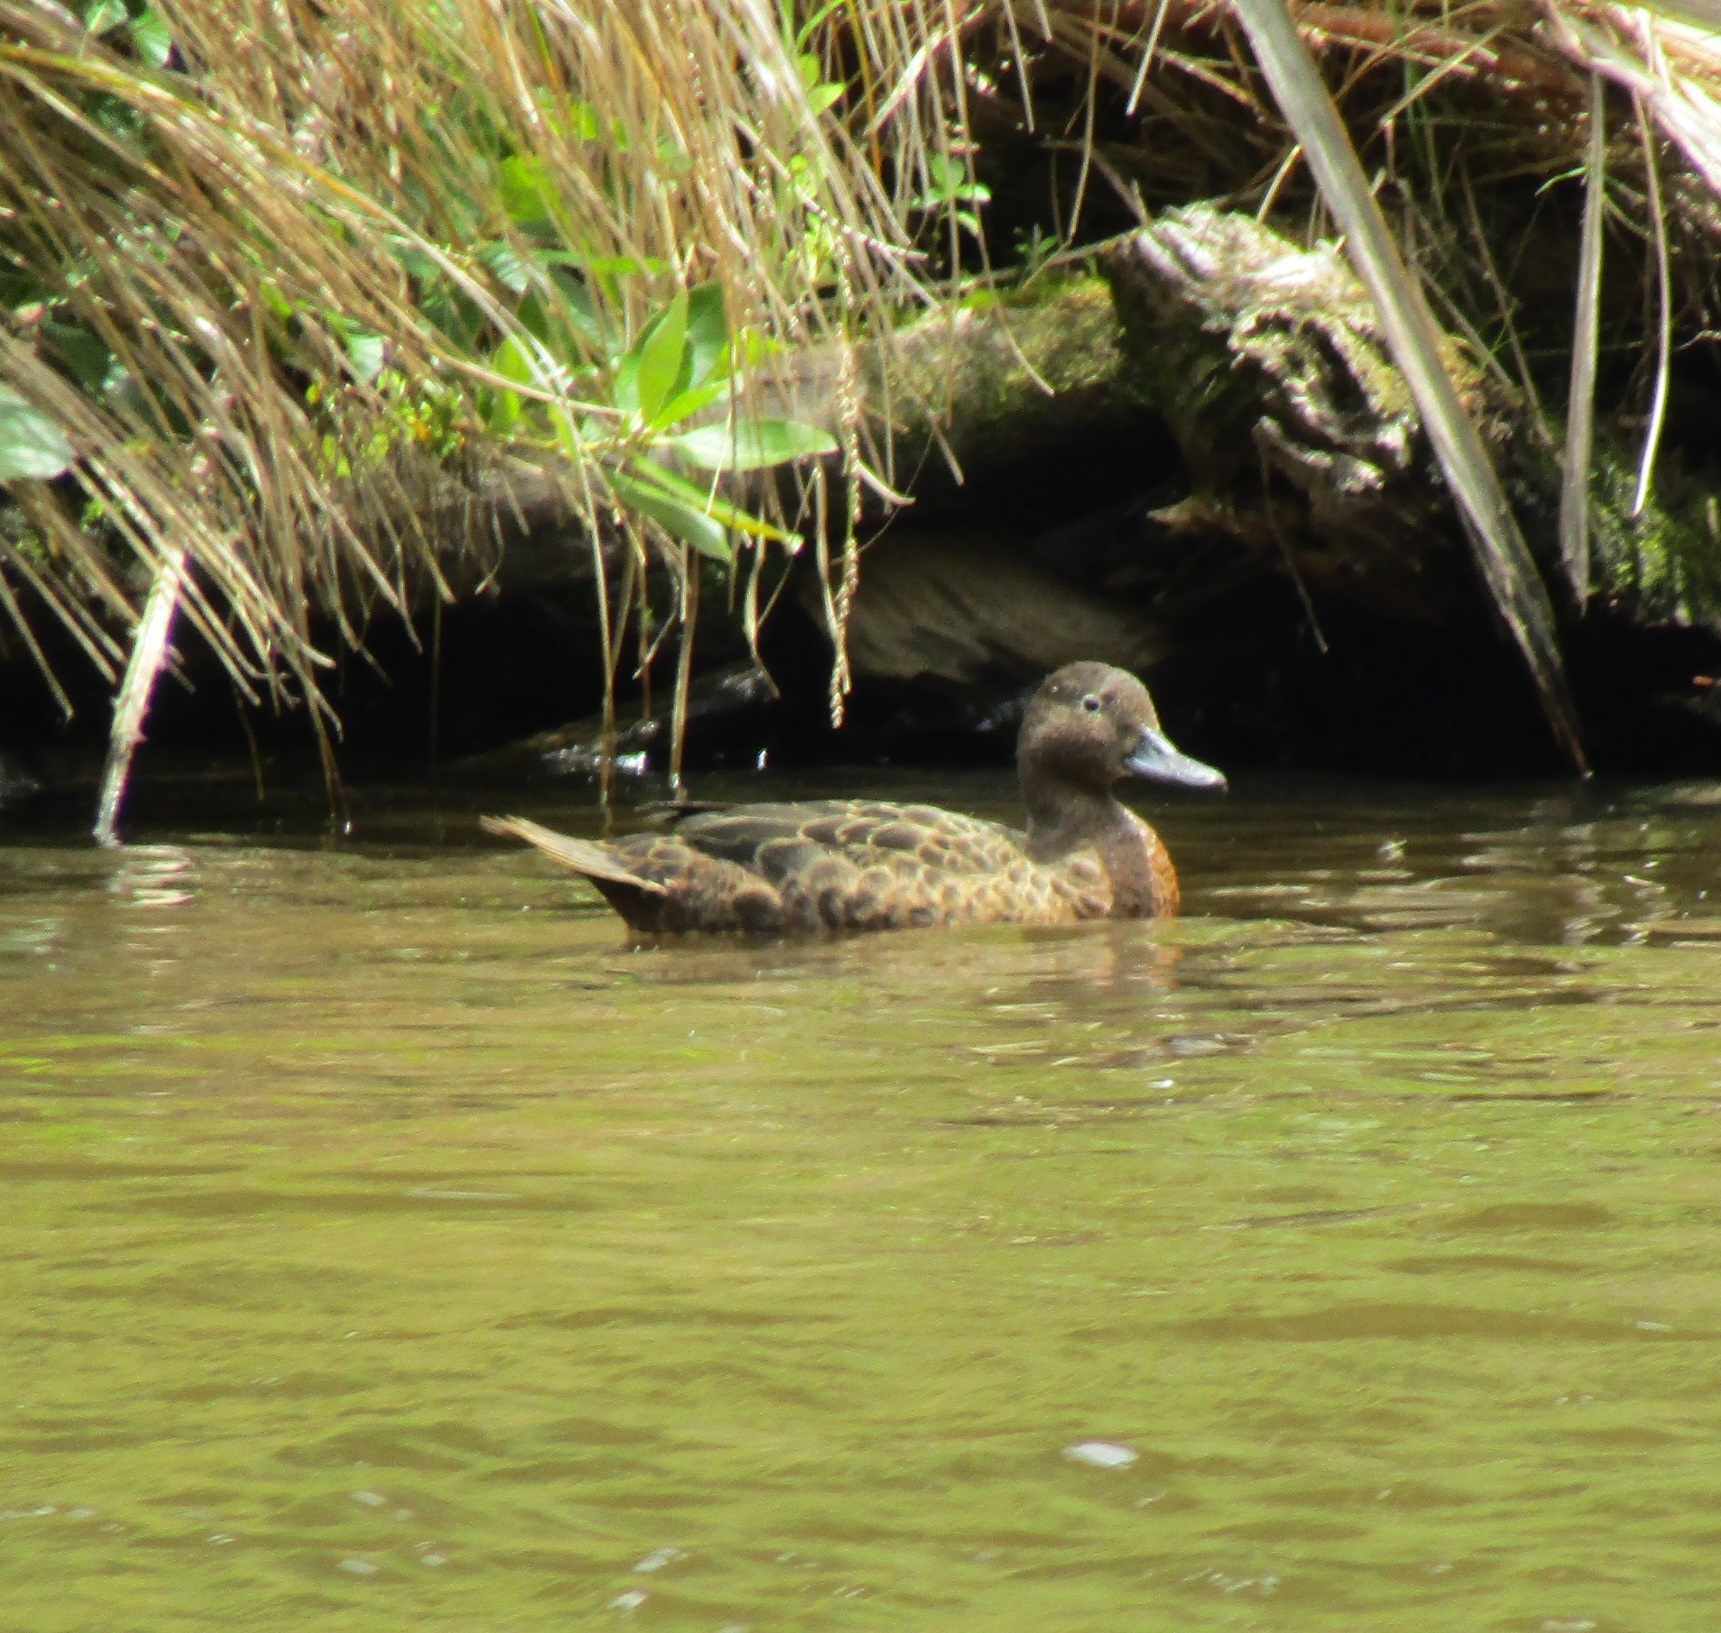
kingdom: Animalia
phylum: Chordata
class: Aves
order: Anseriformes
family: Anatidae
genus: Anas
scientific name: Anas chlorotis
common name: Brown teal
